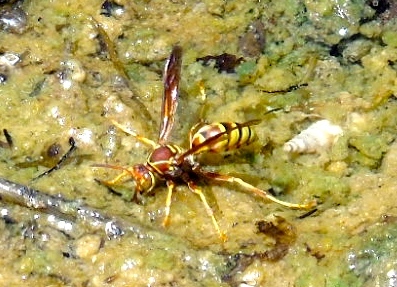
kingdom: Animalia
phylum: Arthropoda
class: Insecta
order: Hymenoptera
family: Eumenidae
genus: Polistes
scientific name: Polistes dorsalis
